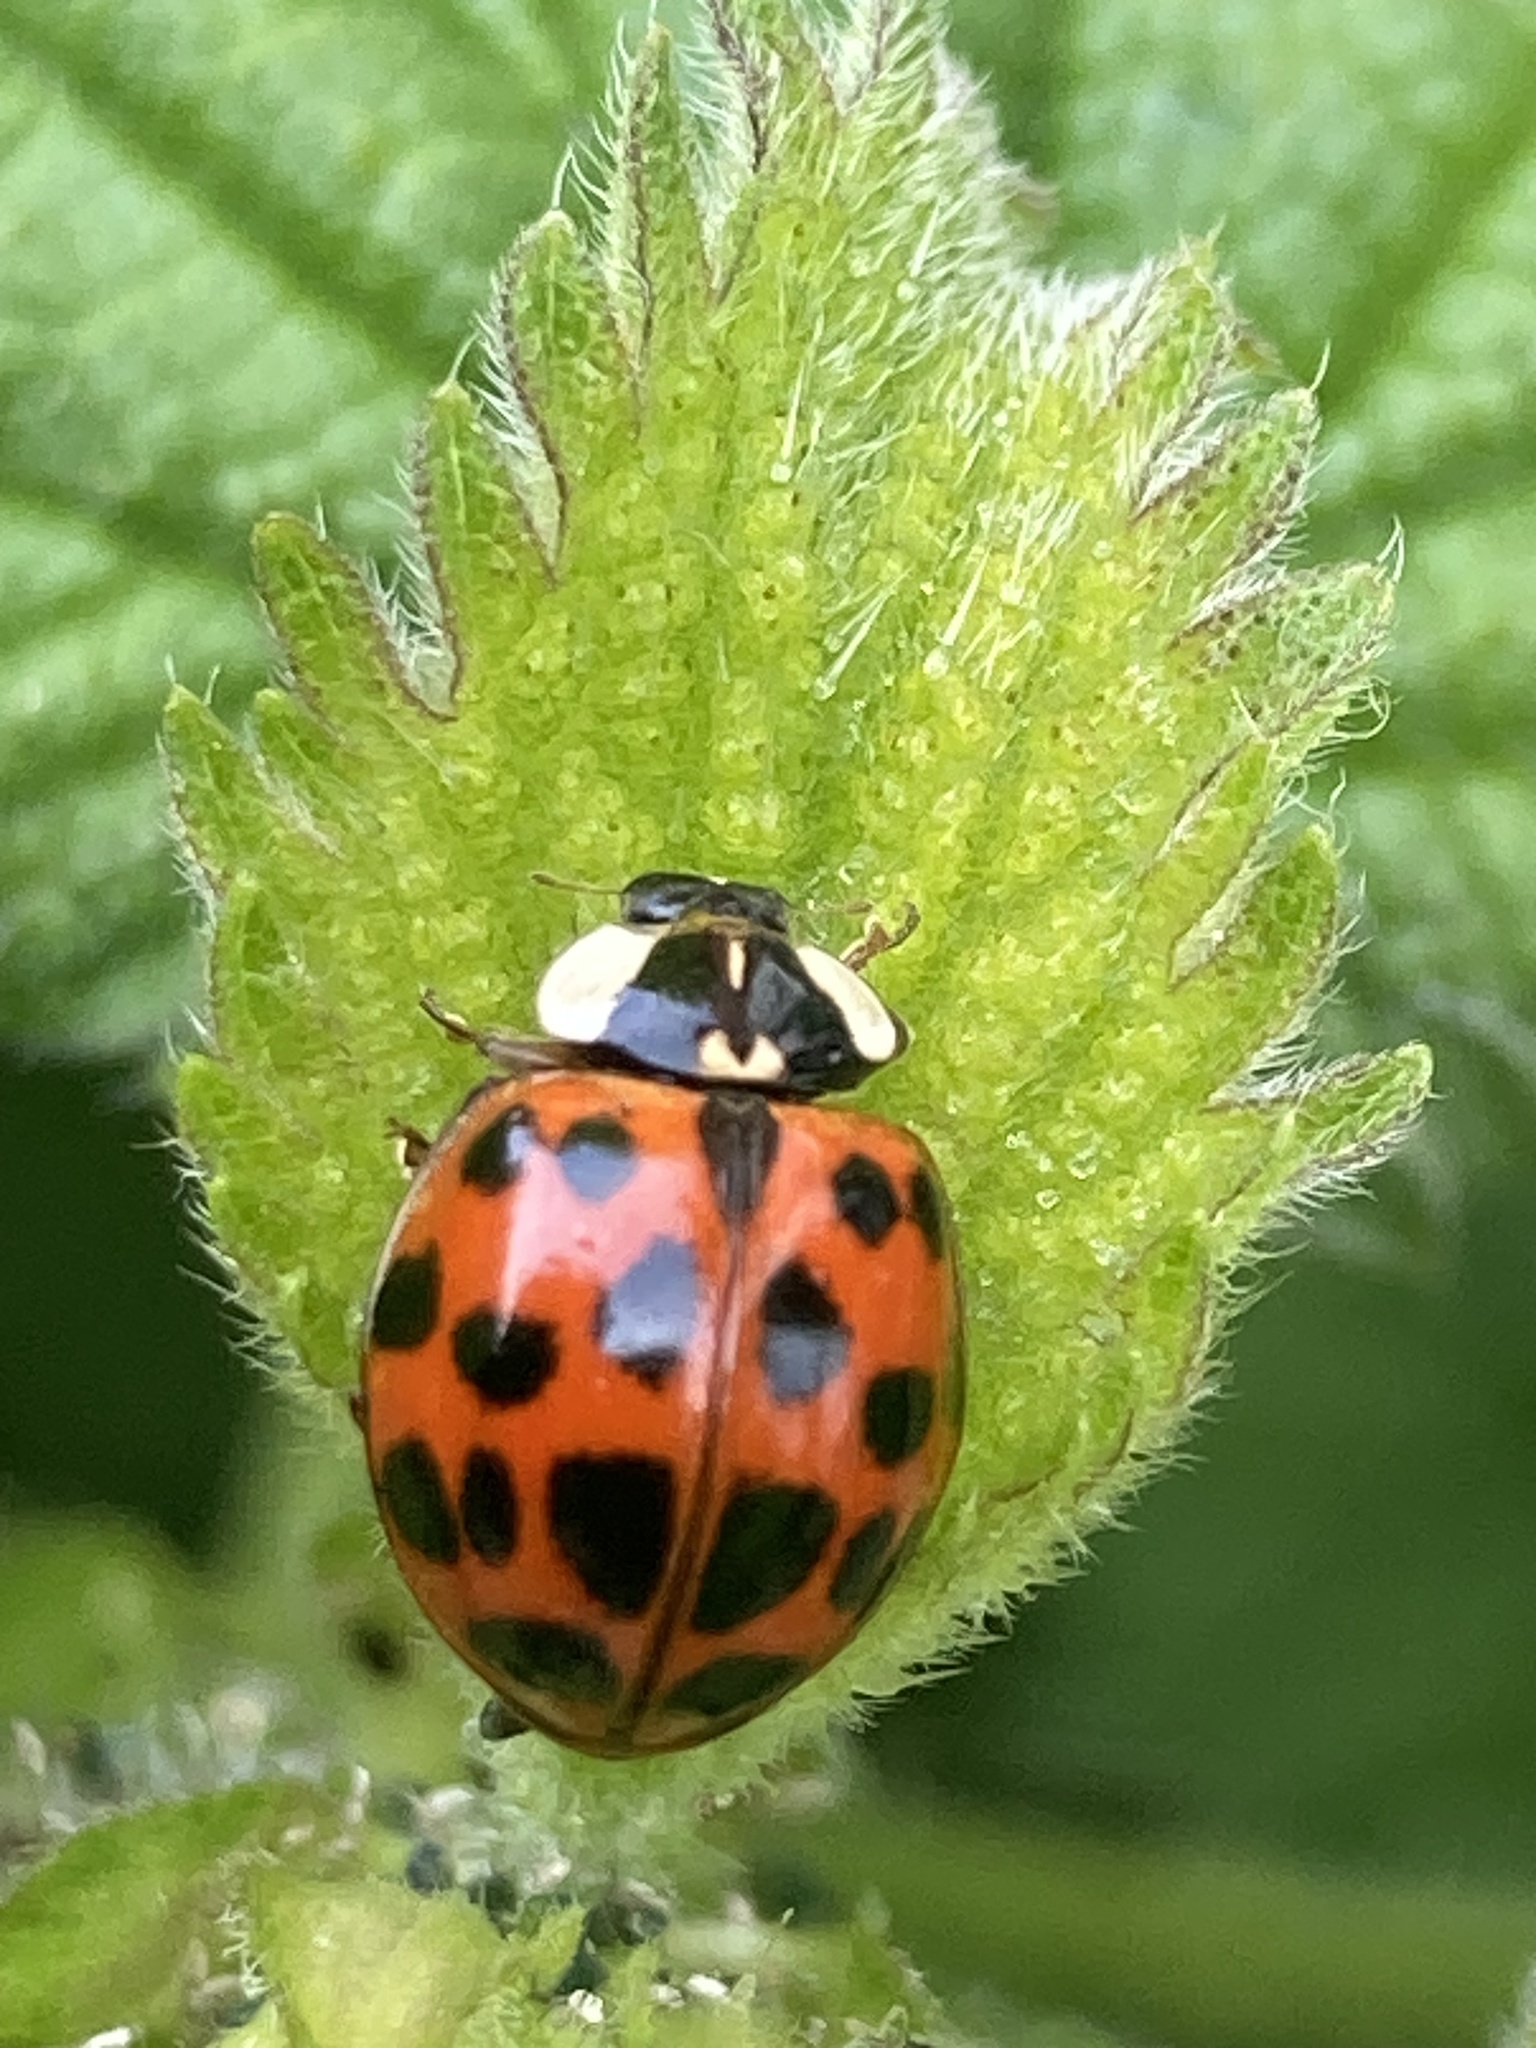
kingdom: Animalia
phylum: Arthropoda
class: Insecta
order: Coleoptera
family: Coccinellidae
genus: Harmonia
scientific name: Harmonia axyridis
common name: Harlequin ladybird
